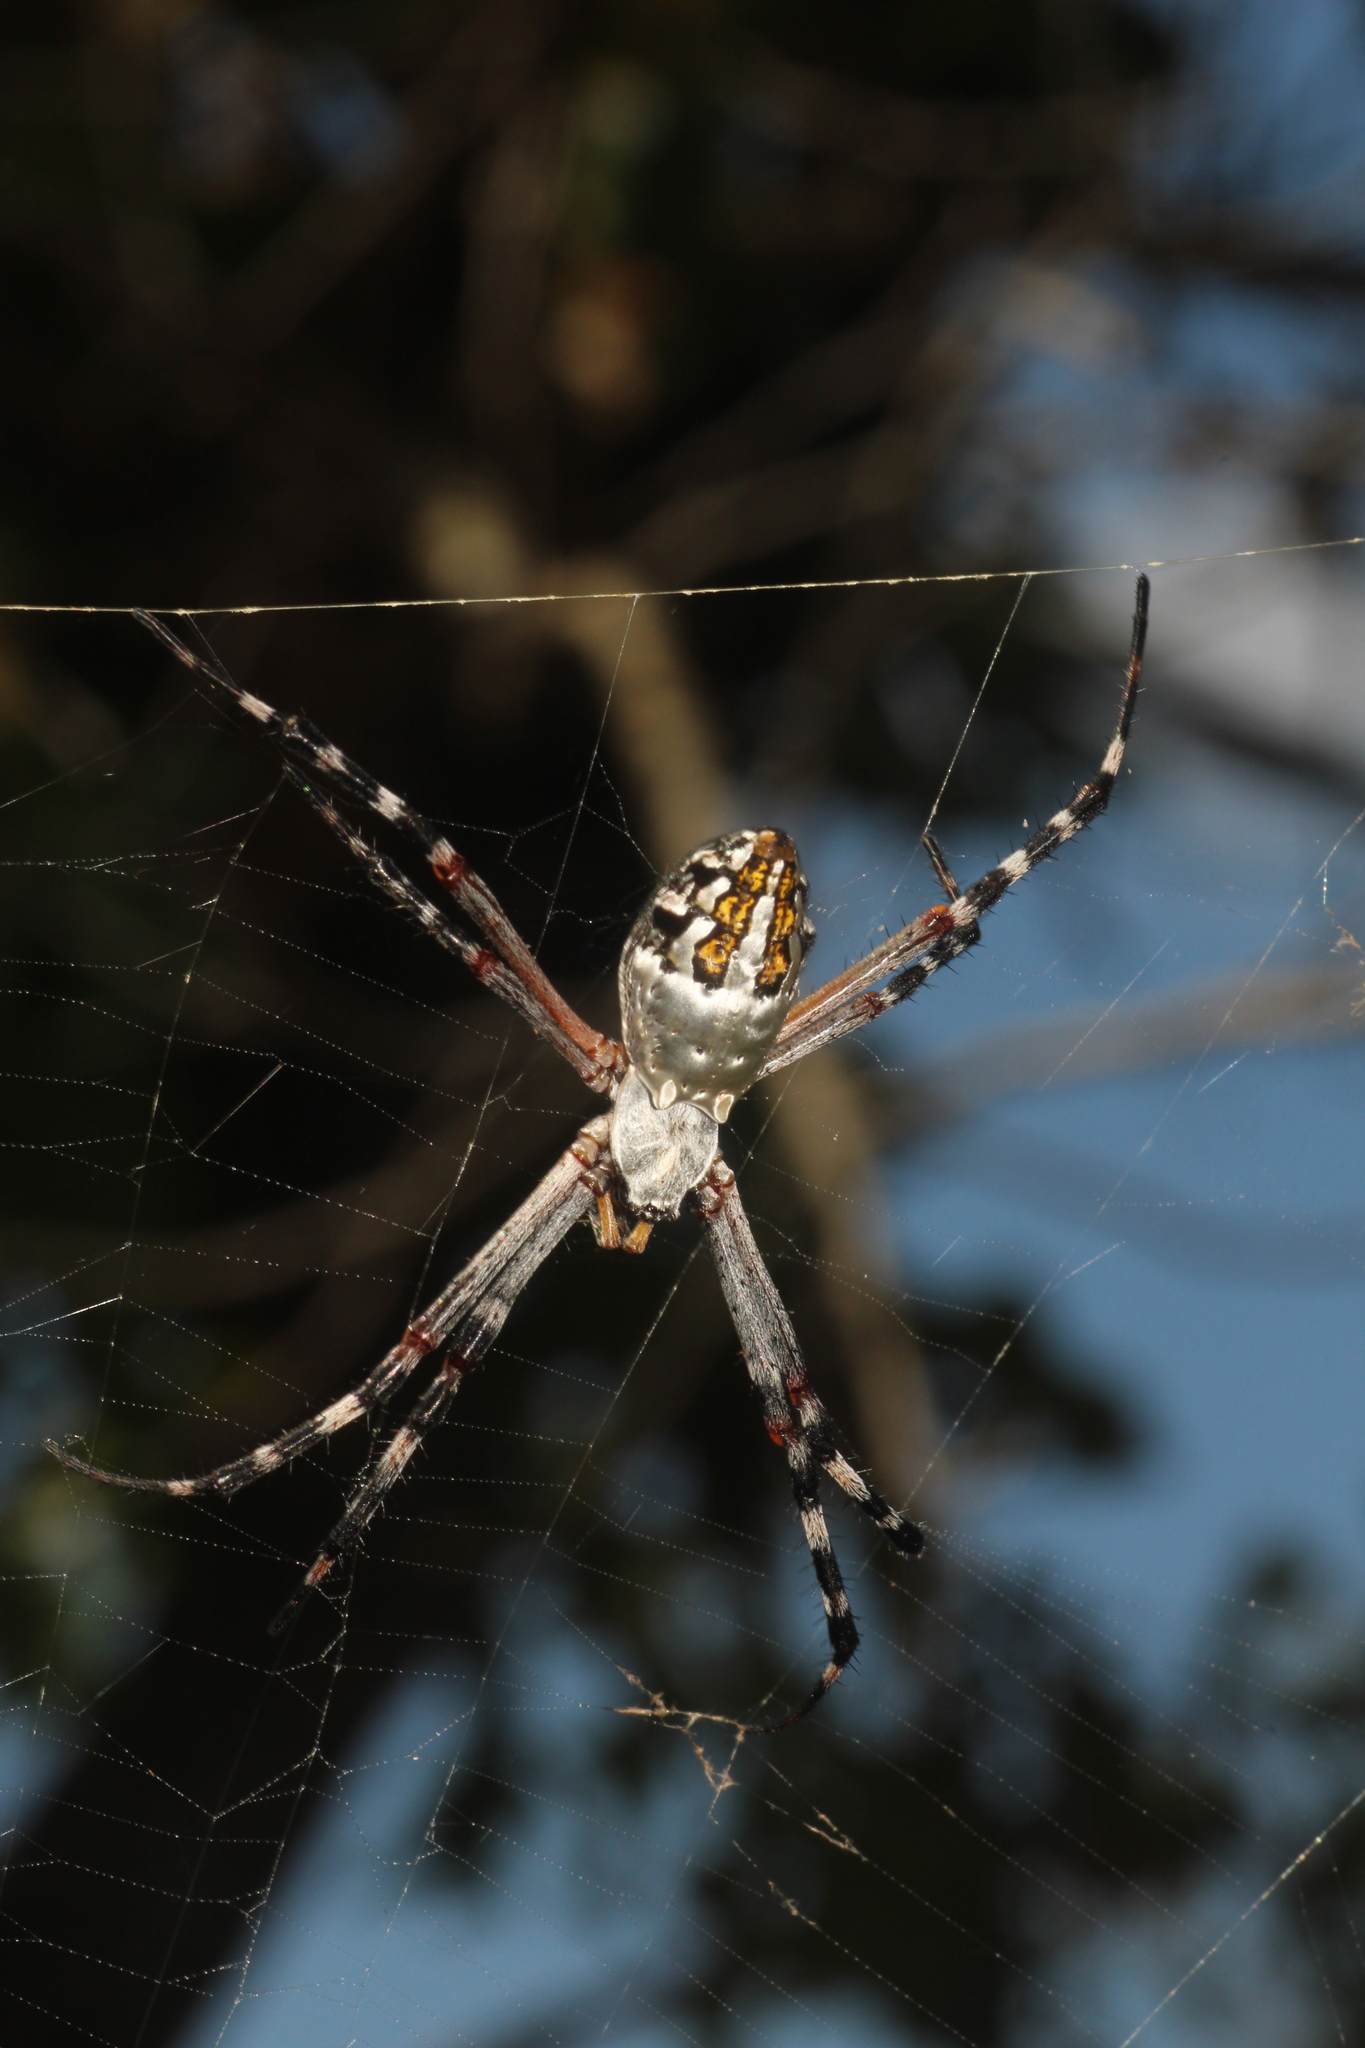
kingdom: Animalia
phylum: Arthropoda
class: Arachnida
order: Araneae
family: Araneidae
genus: Argiope
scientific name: Argiope florida
